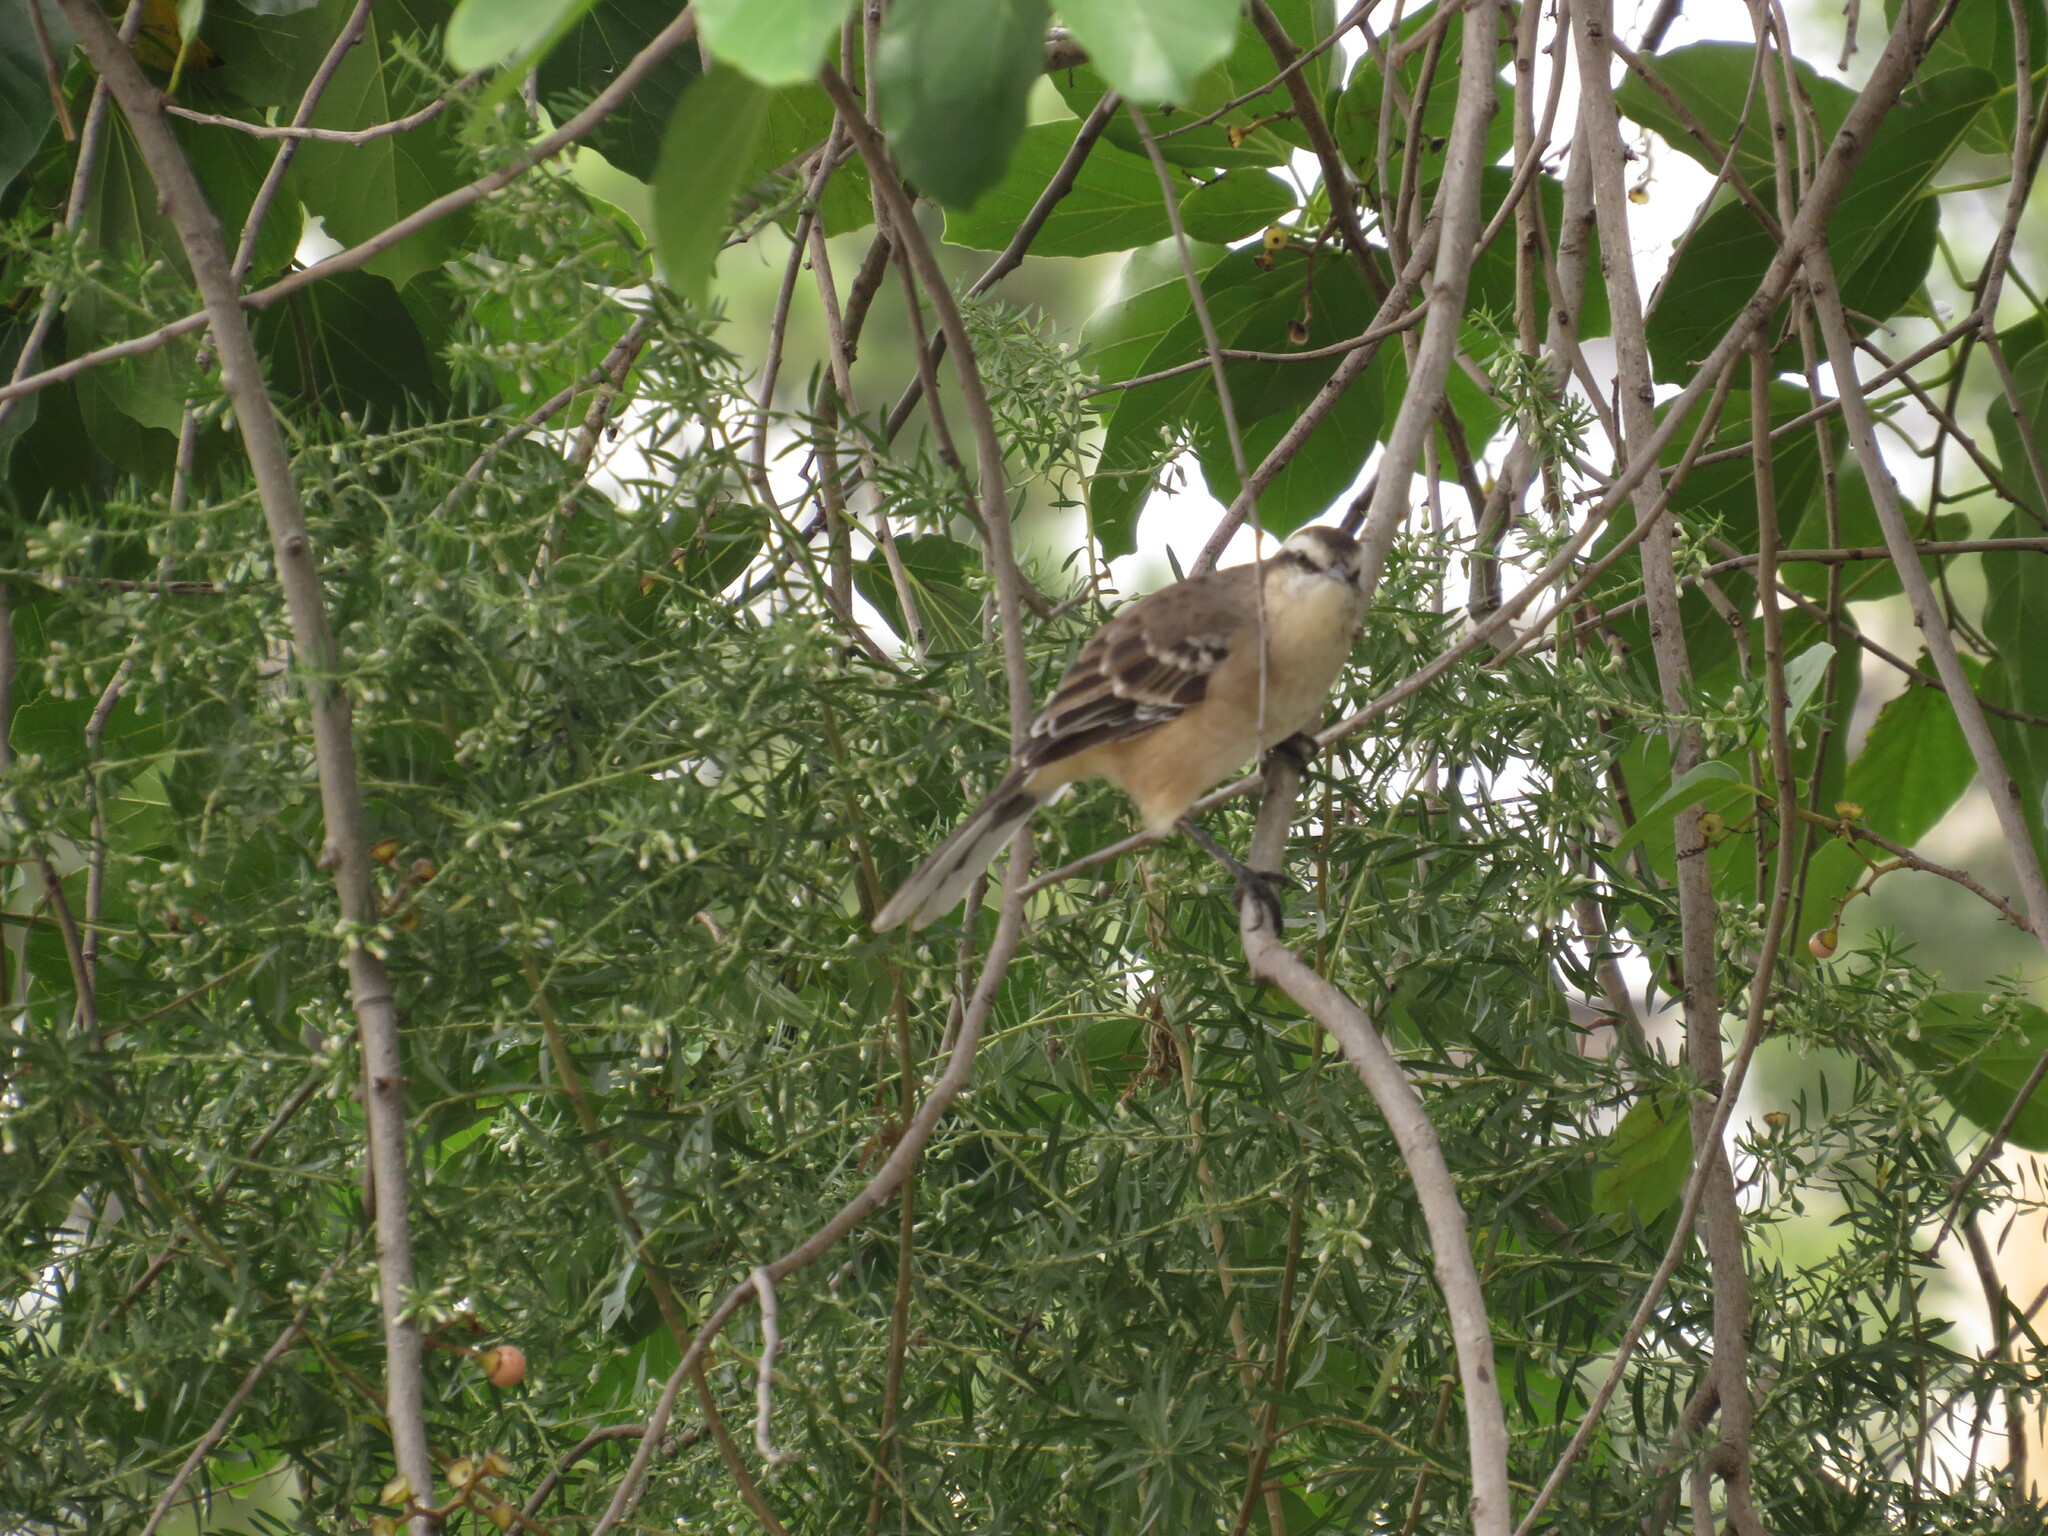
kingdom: Animalia
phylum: Chordata
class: Aves
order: Passeriformes
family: Mimidae
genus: Mimus
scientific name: Mimus saturninus
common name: Chalk-browed mockingbird
